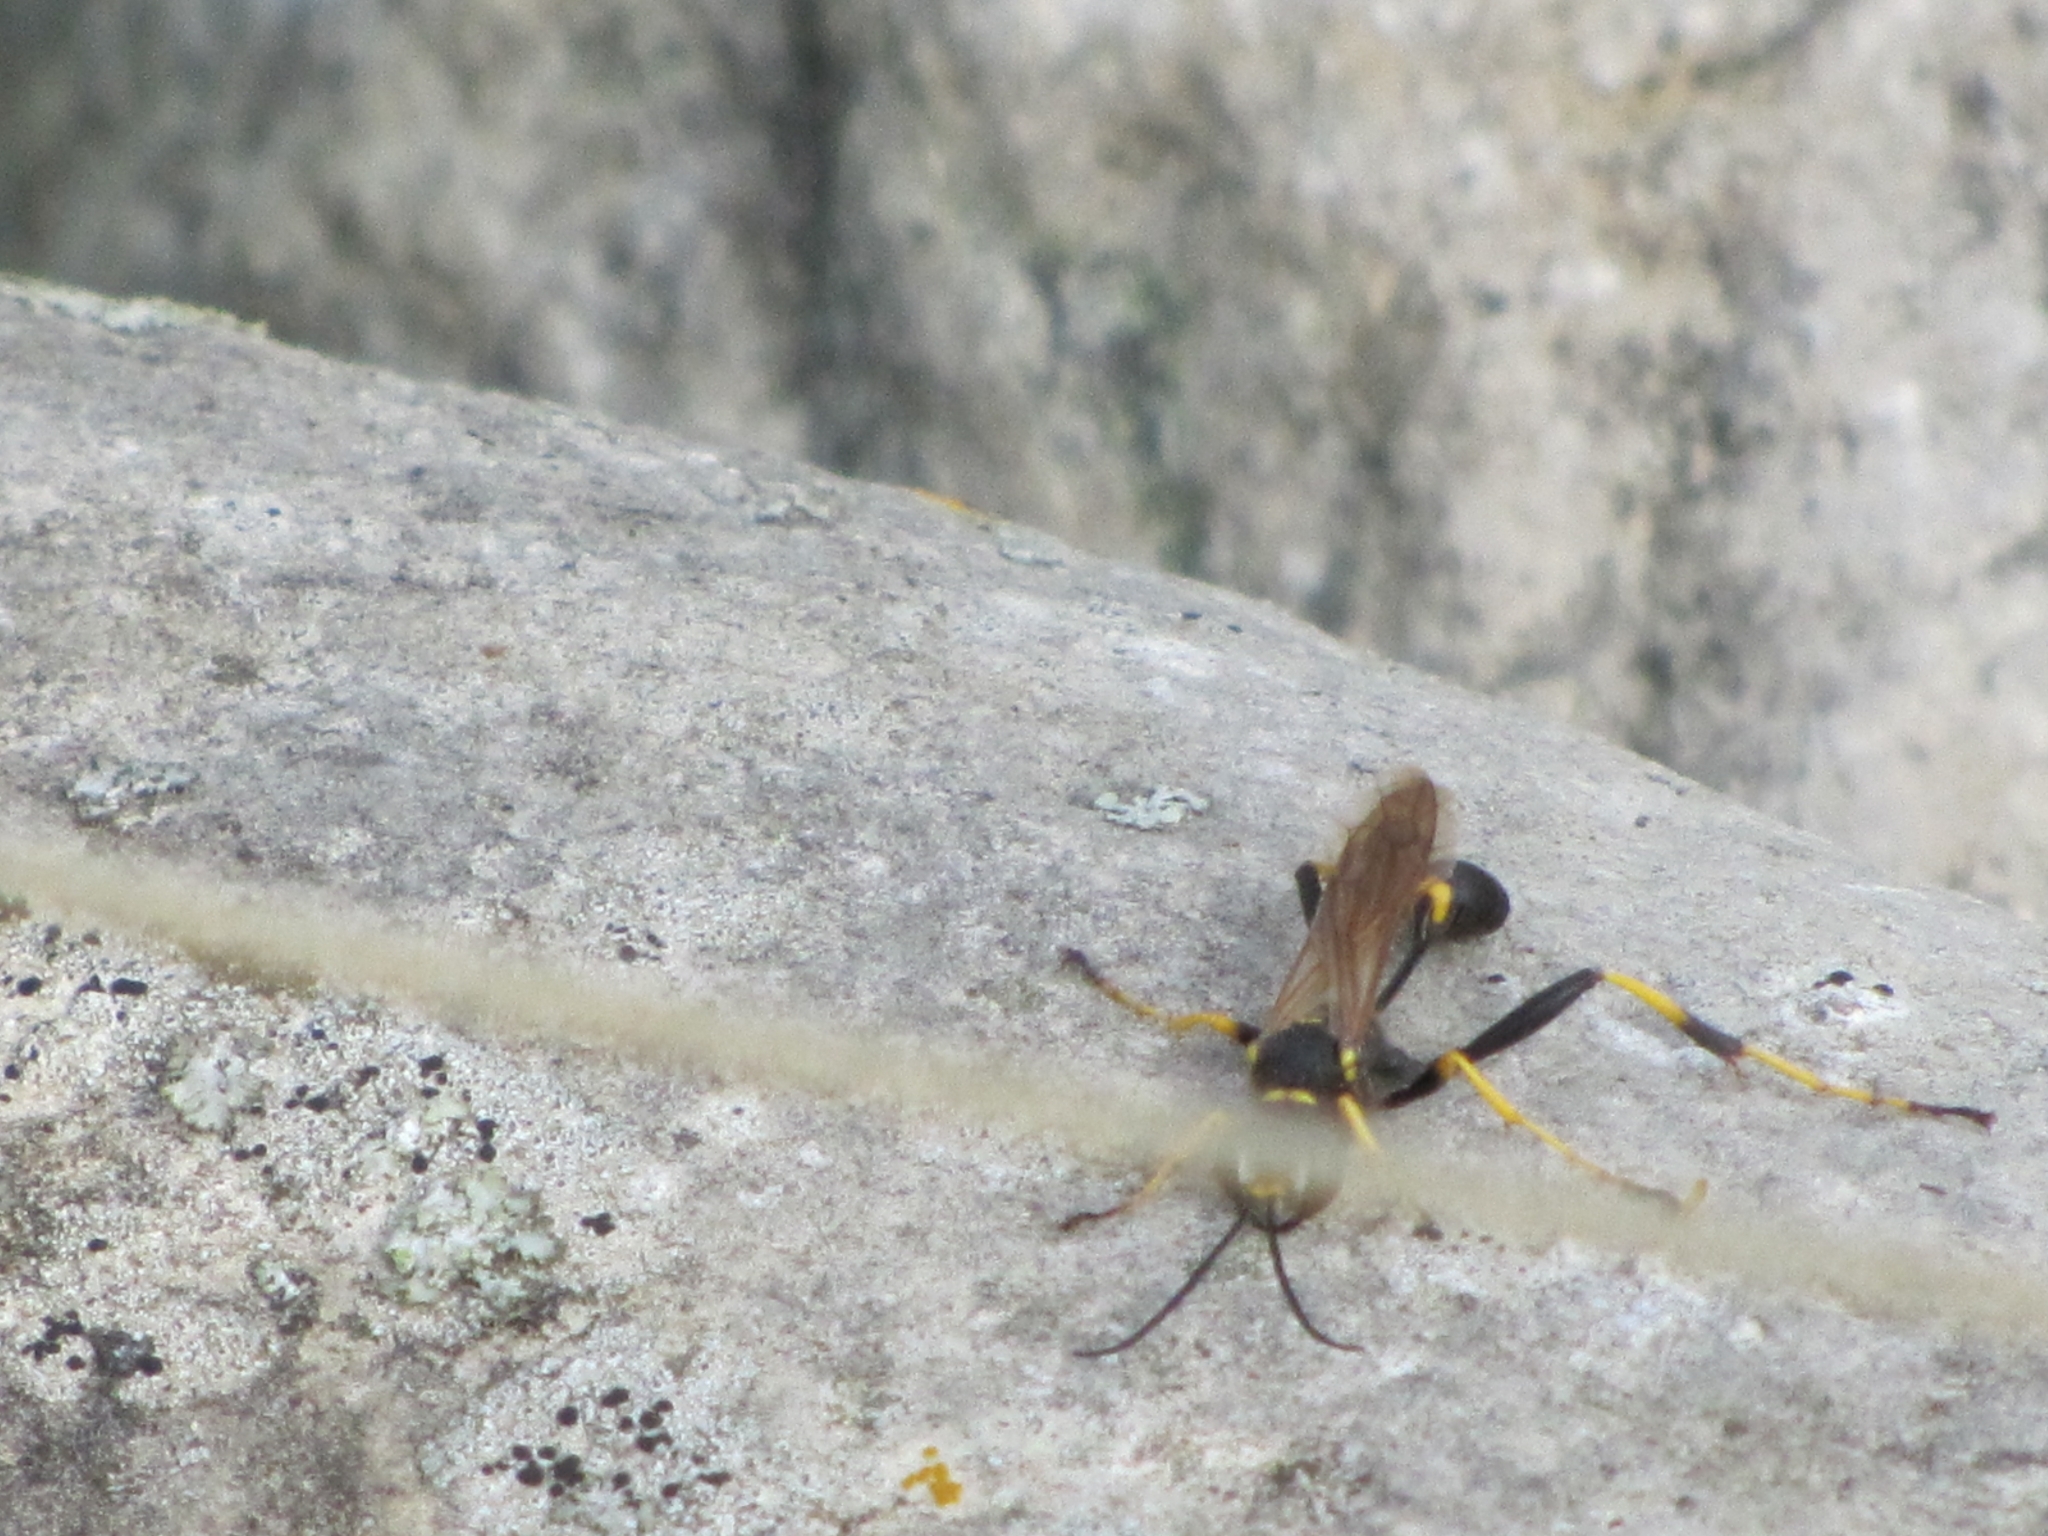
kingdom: Animalia
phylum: Arthropoda
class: Insecta
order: Hymenoptera
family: Sphecidae
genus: Sceliphron
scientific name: Sceliphron caementarium
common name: Mud dauber
